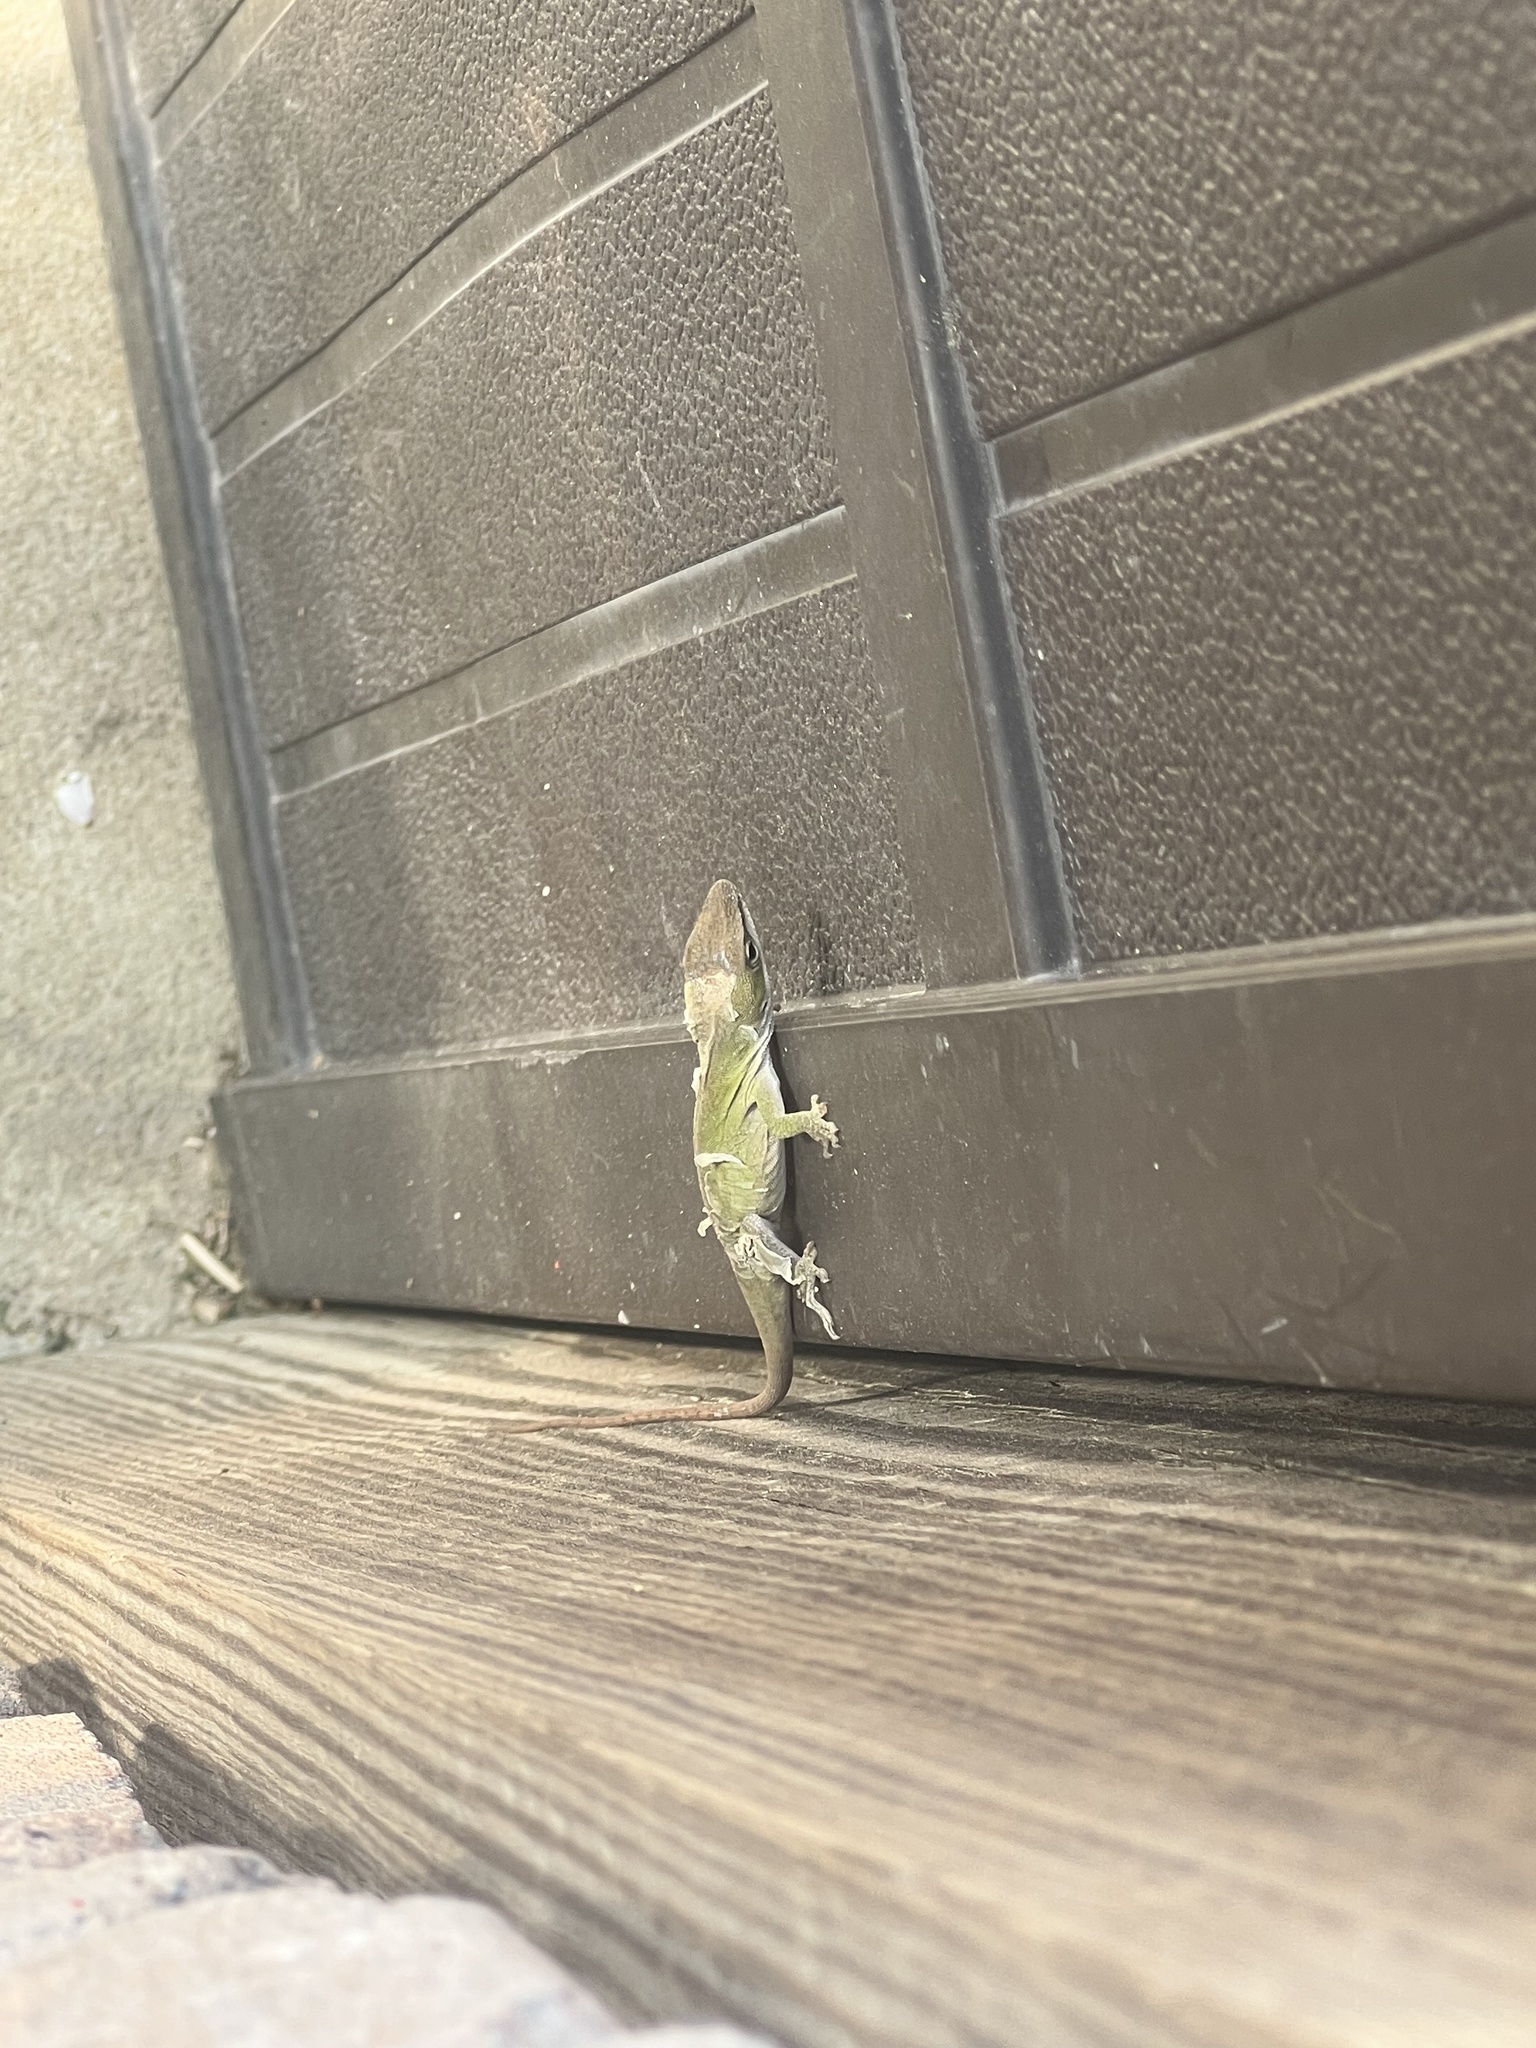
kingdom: Animalia
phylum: Chordata
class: Squamata
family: Dactyloidae
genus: Anolis
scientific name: Anolis carolinensis
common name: Green anole
